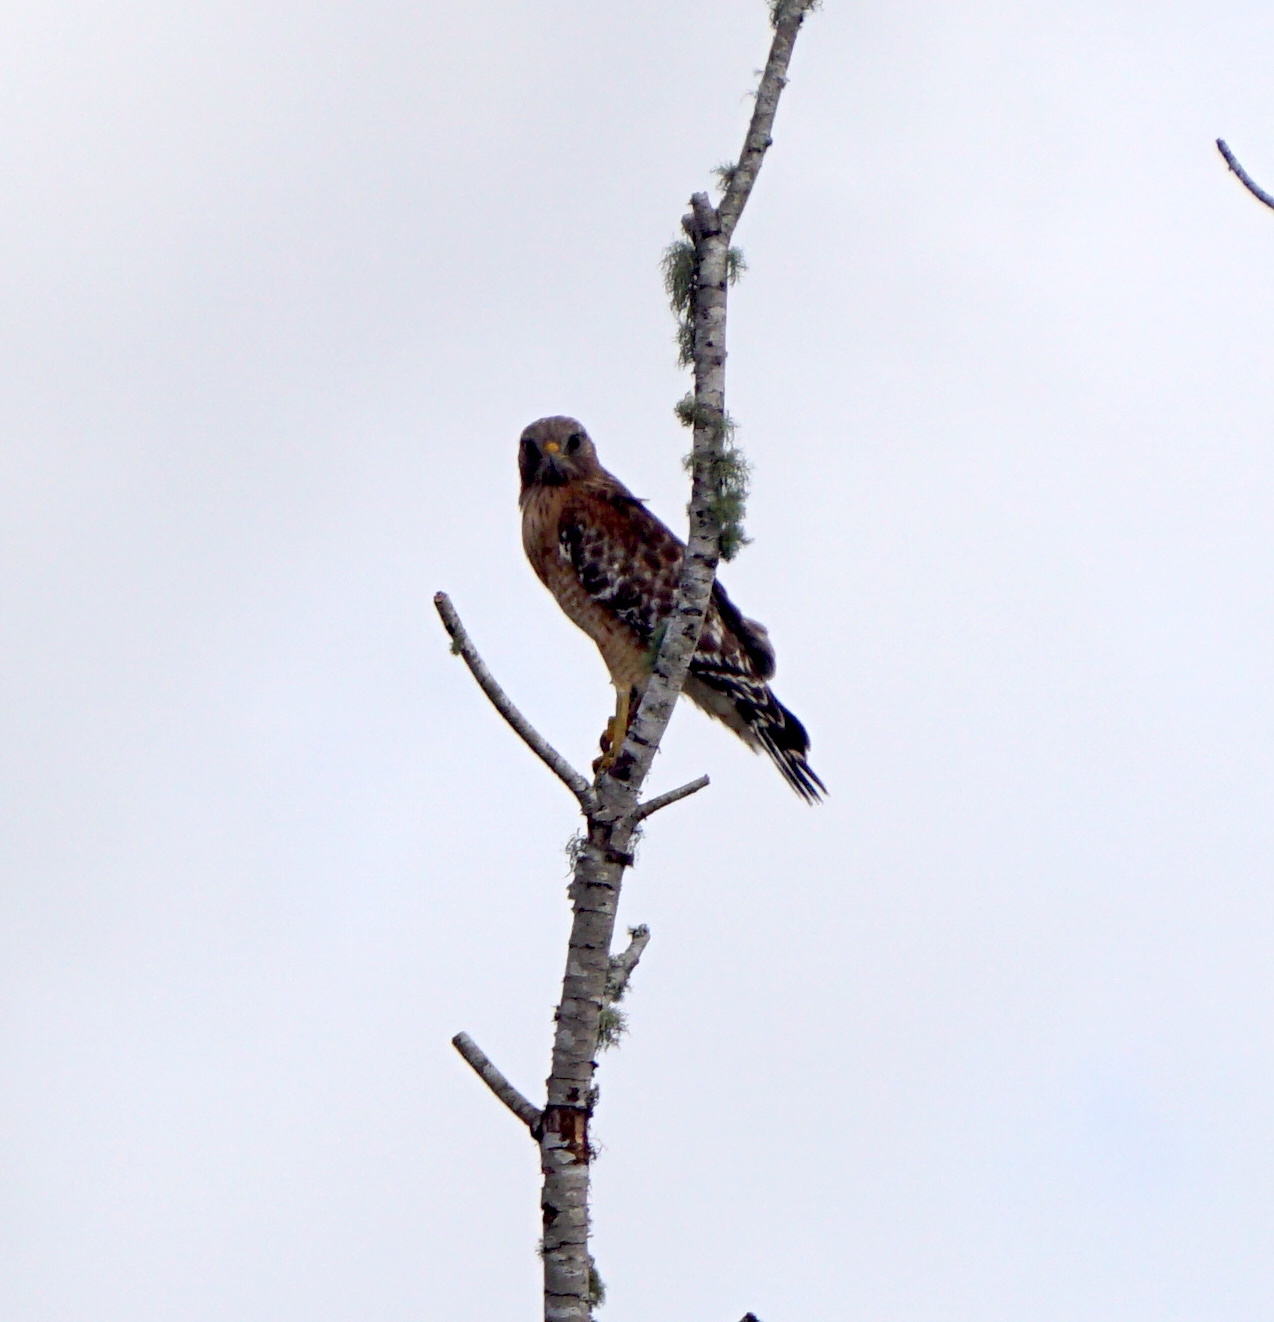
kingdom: Animalia
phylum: Chordata
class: Aves
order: Accipitriformes
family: Accipitridae
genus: Buteo
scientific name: Buteo lineatus
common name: Red-shouldered hawk
